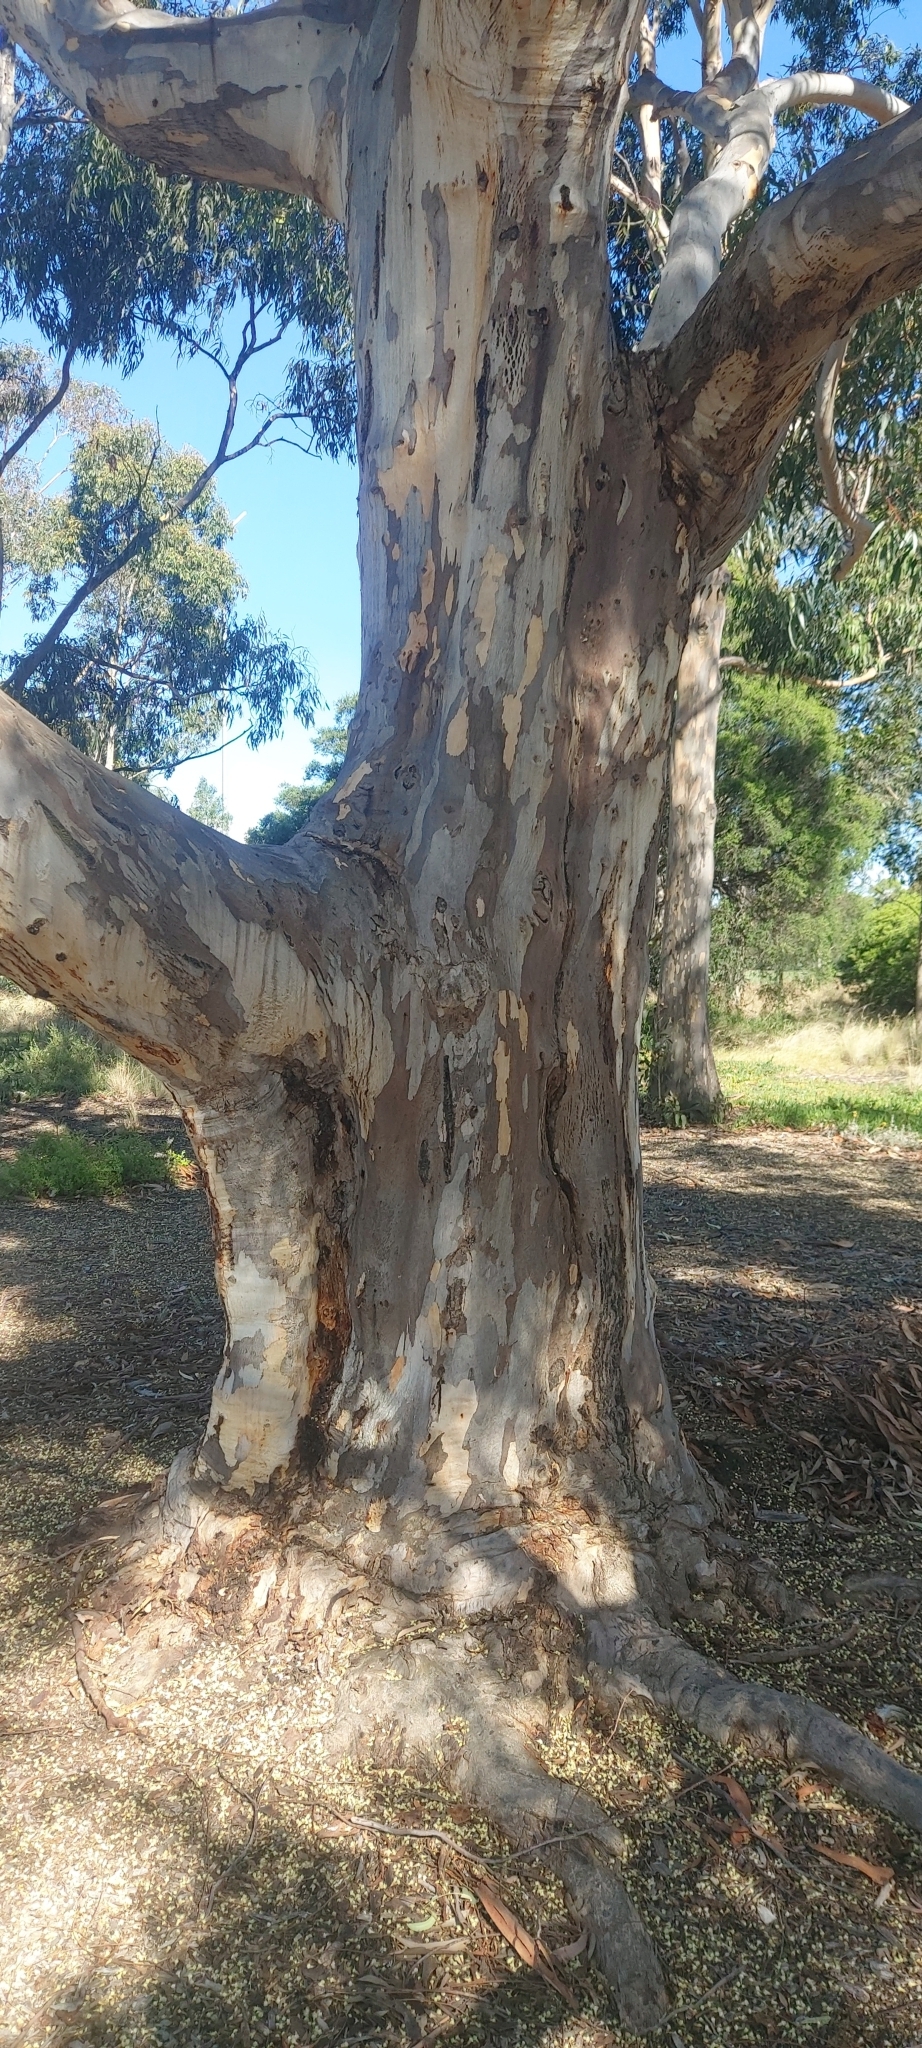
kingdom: Plantae
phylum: Tracheophyta
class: Magnoliopsida
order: Myrtales
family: Myrtaceae
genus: Eucalyptus
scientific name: Eucalyptus cladocalyx
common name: Sugargum
